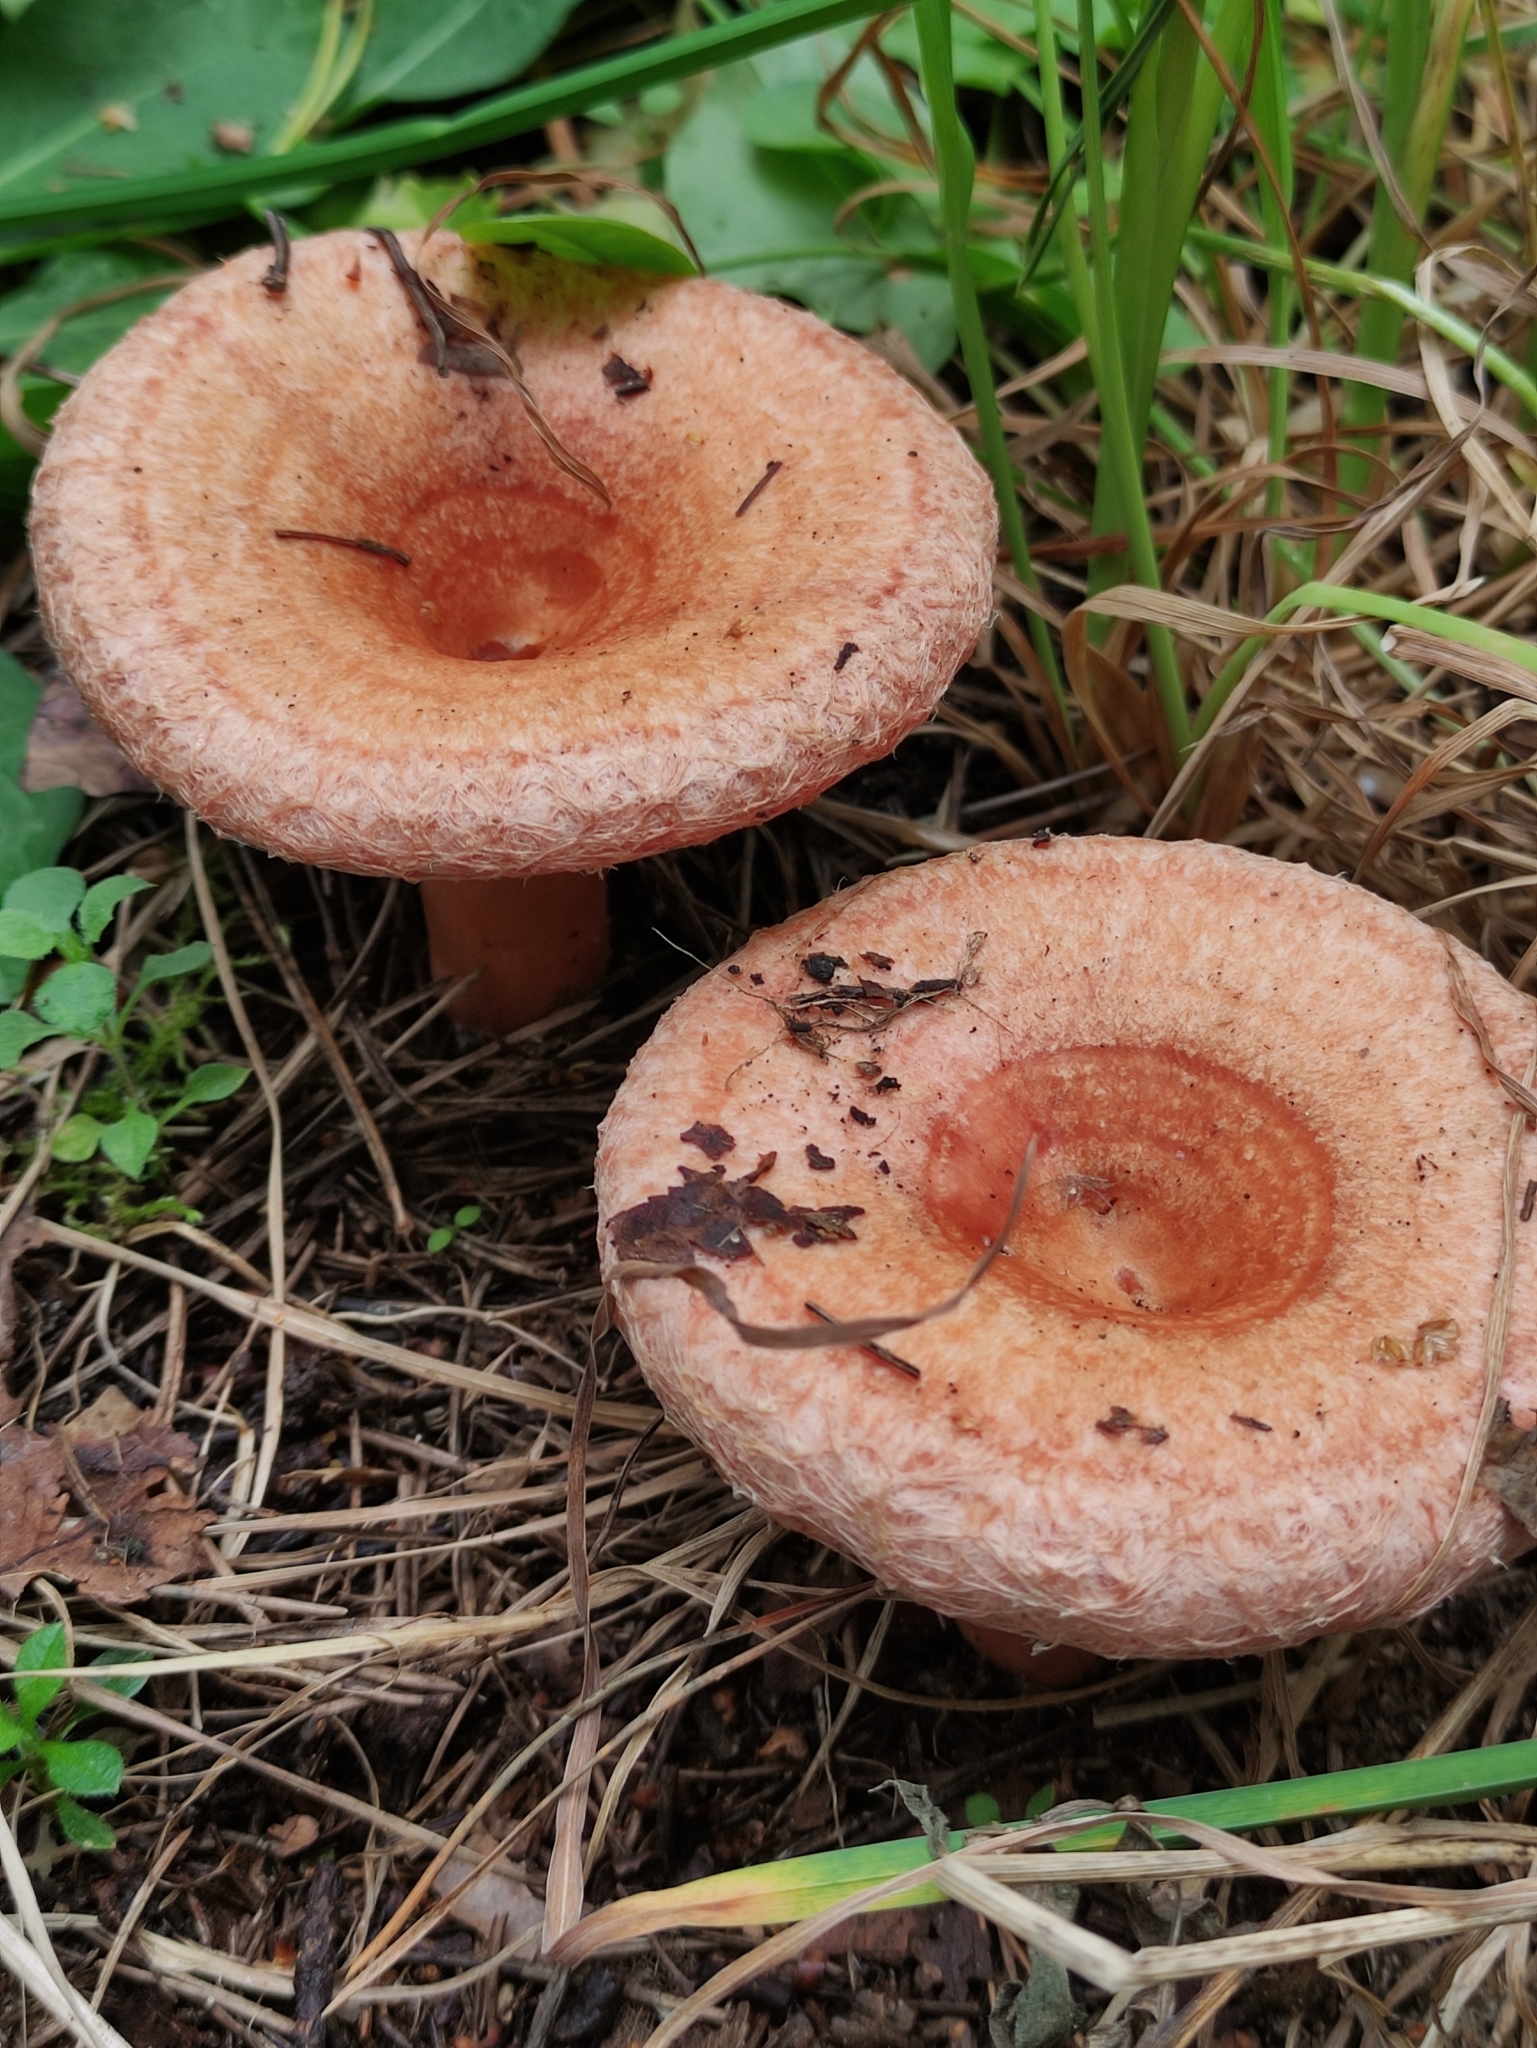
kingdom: Fungi
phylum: Basidiomycota
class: Agaricomycetes
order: Russulales
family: Russulaceae
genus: Lactarius
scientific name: Lactarius torminosus
